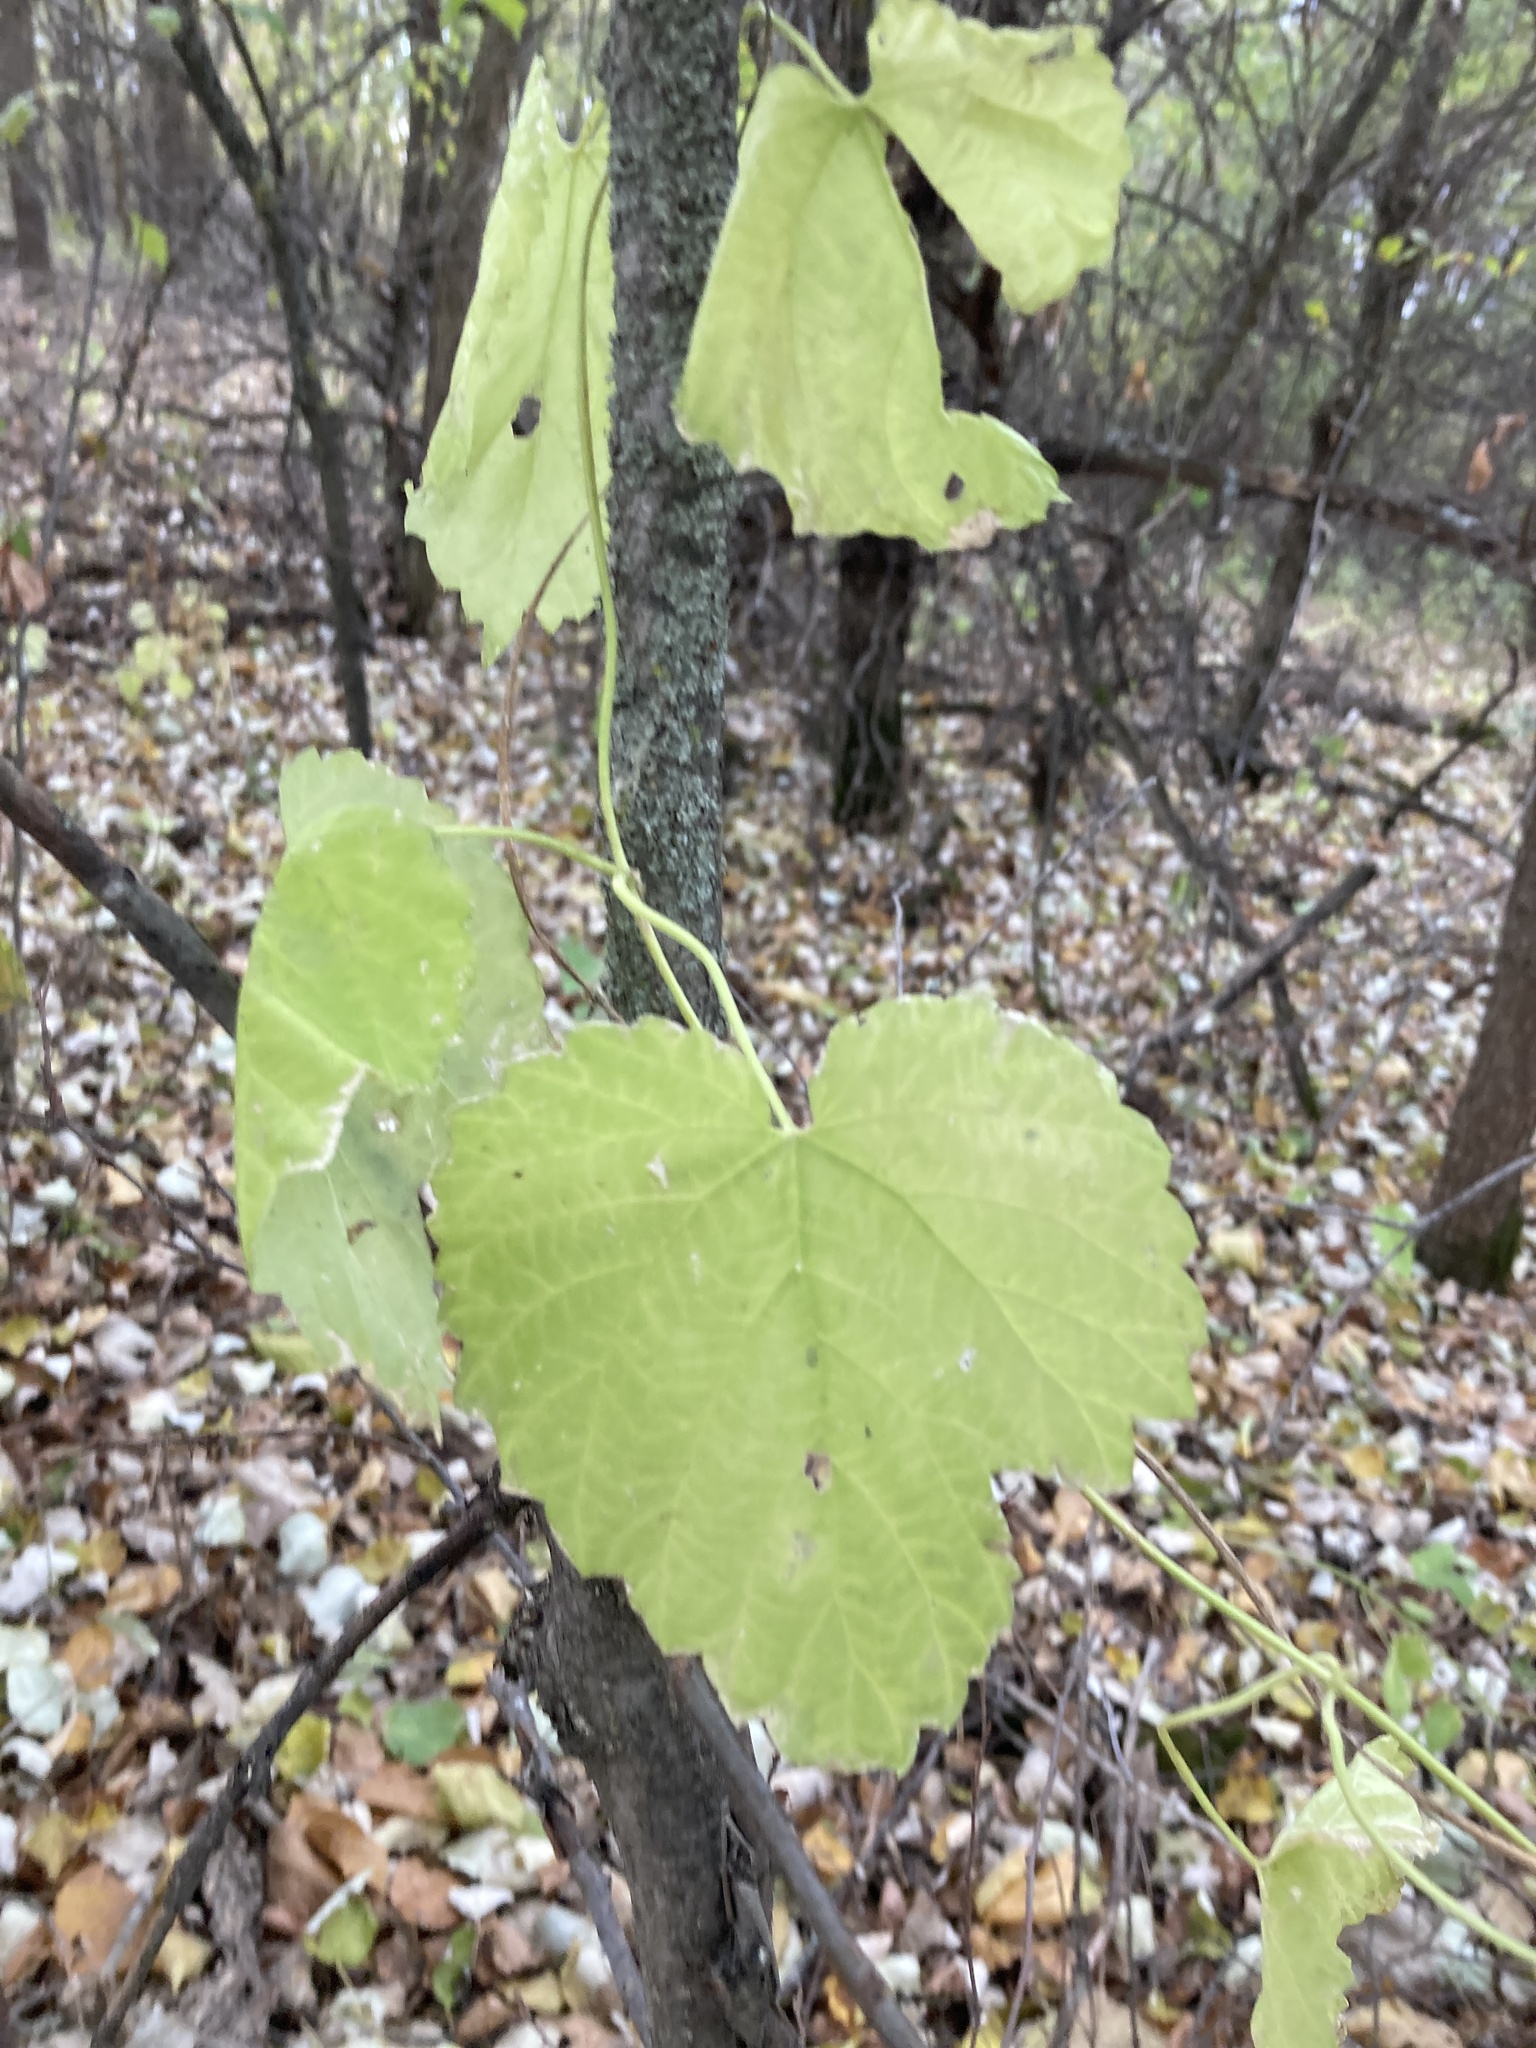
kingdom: Plantae
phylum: Tracheophyta
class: Magnoliopsida
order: Rosales
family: Cannabaceae
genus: Humulus
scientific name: Humulus lupulus
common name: Hop
